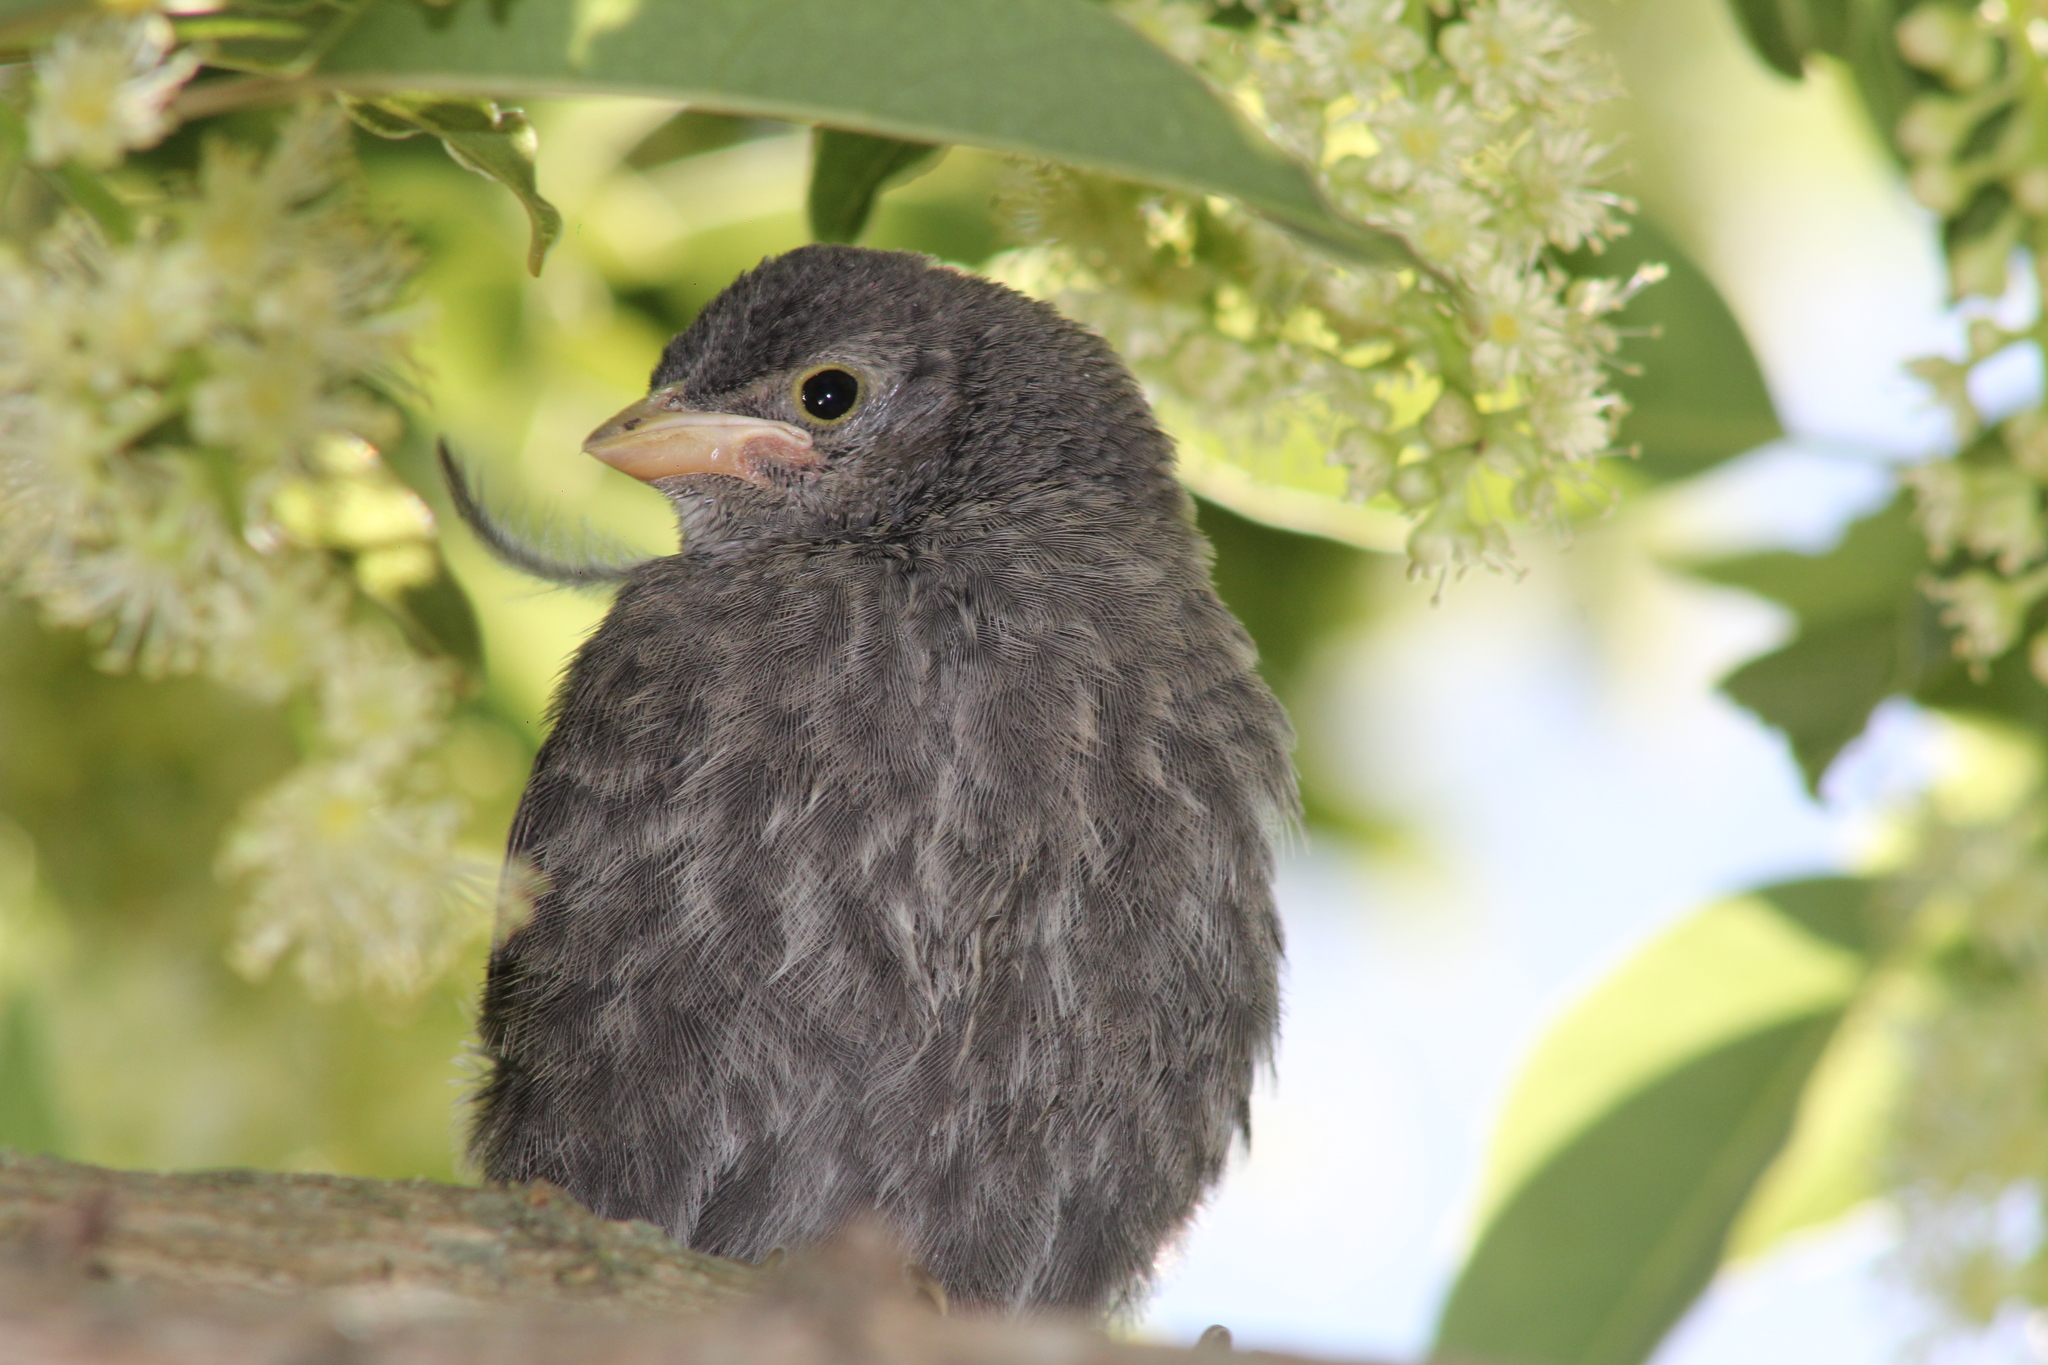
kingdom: Animalia
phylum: Chordata
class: Aves
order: Passeriformes
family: Icteridae
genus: Molothrus
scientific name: Molothrus bonariensis
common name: Shiny cowbird
